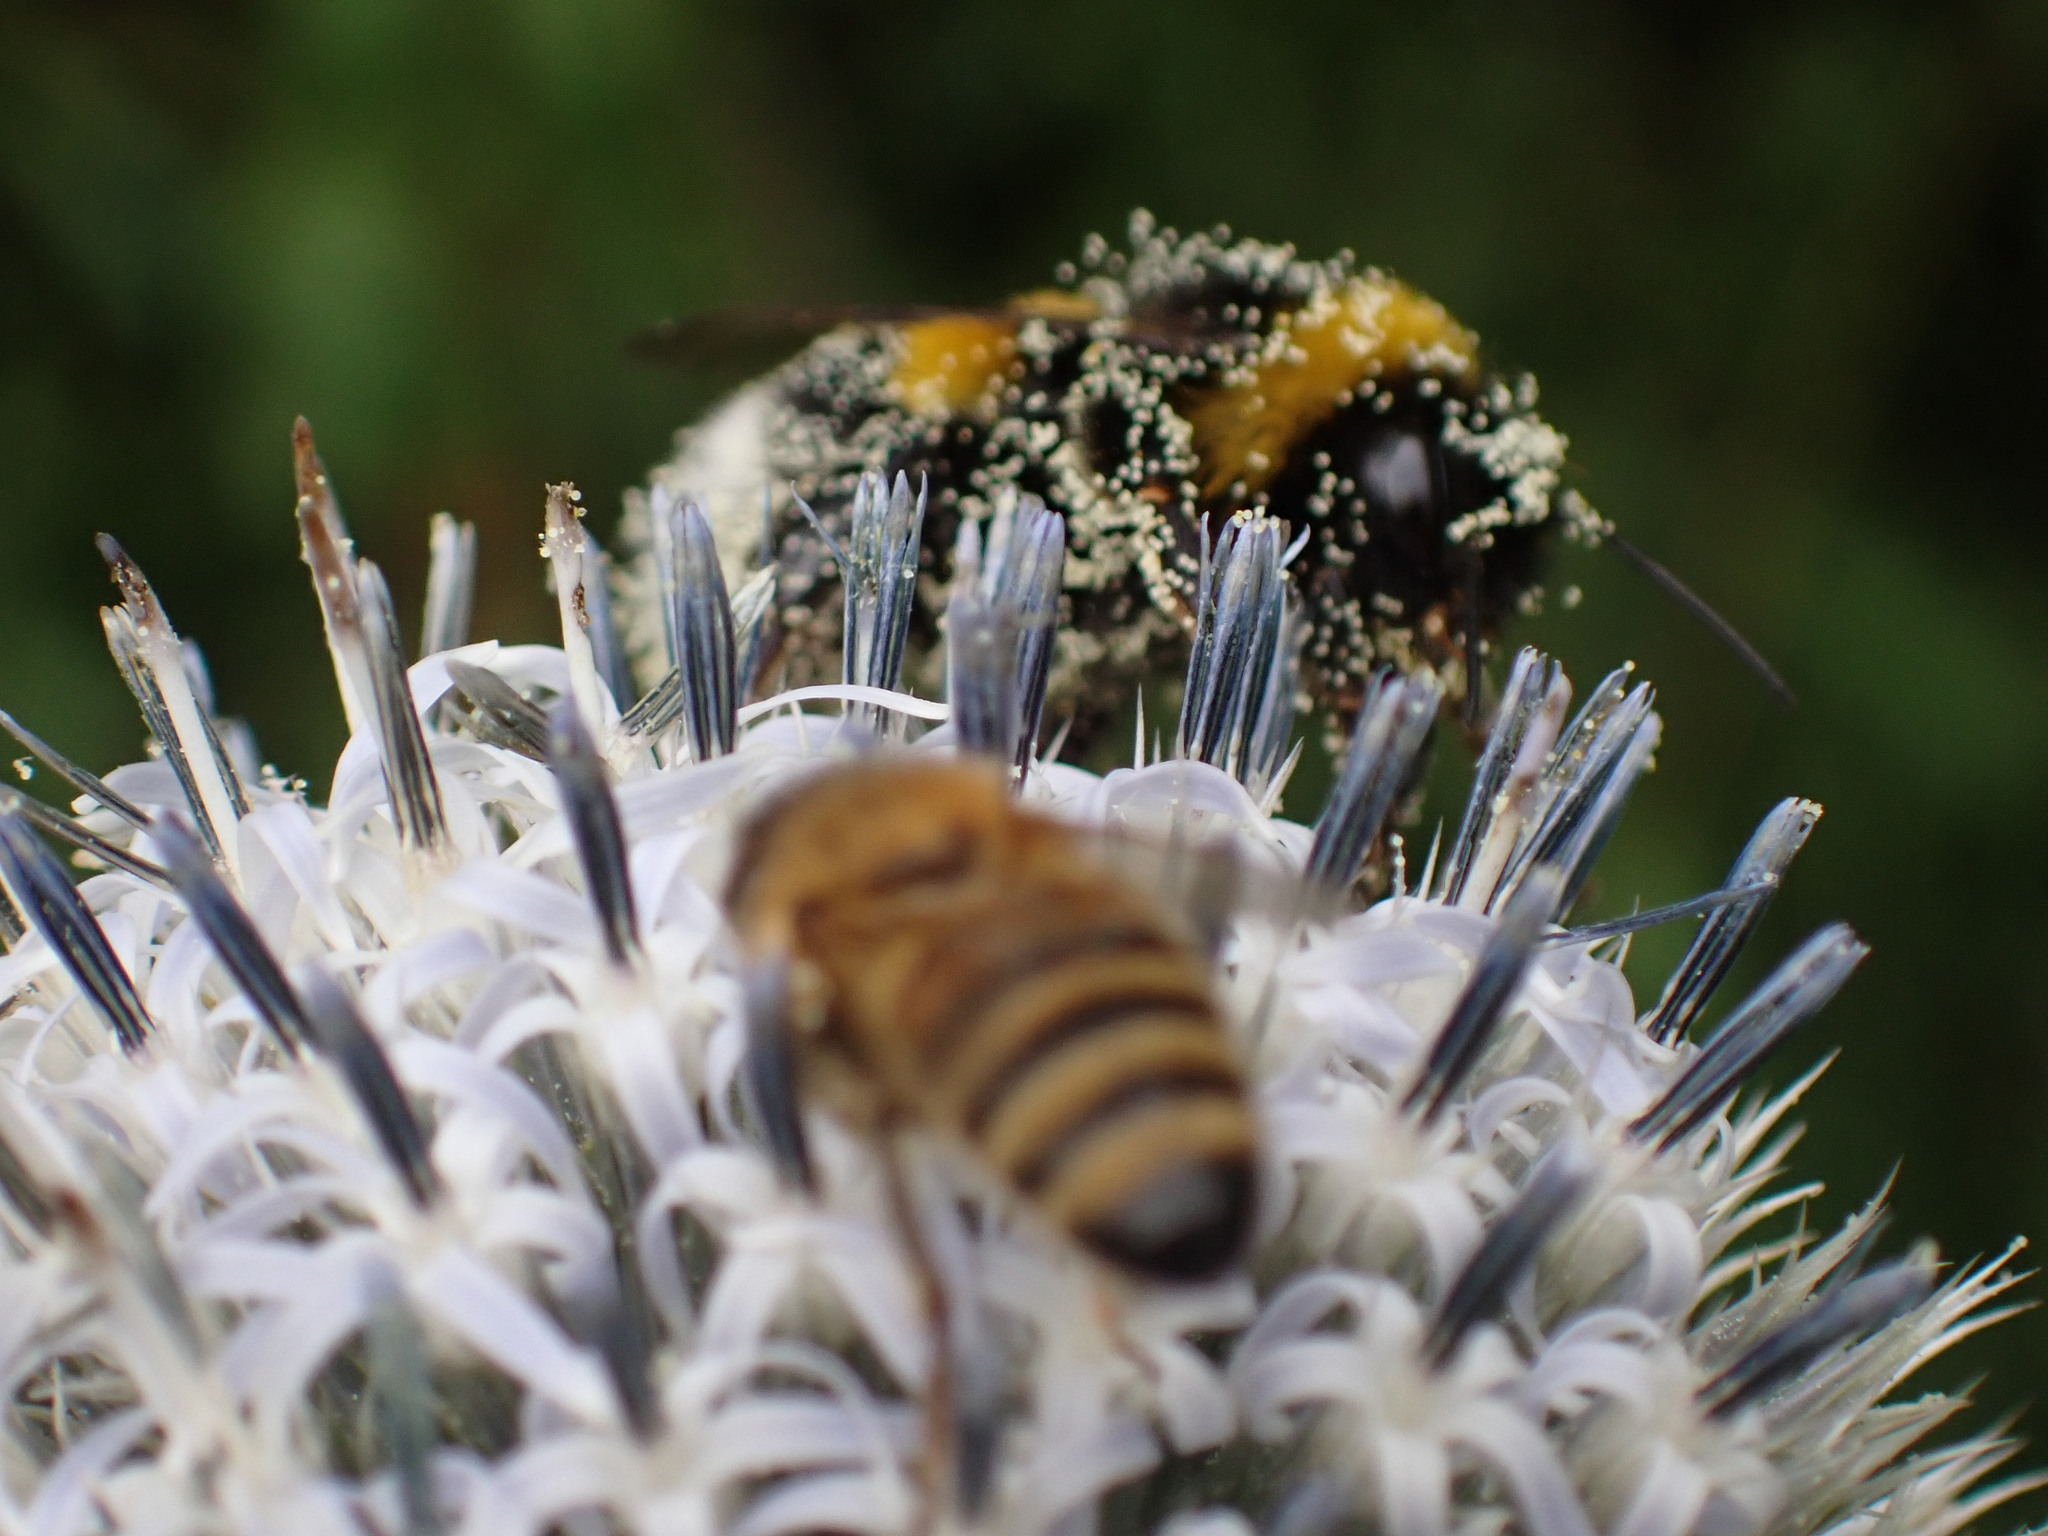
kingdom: Animalia
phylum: Arthropoda
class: Insecta
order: Hymenoptera
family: Apidae
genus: Apis
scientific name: Apis mellifera
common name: Honey bee
